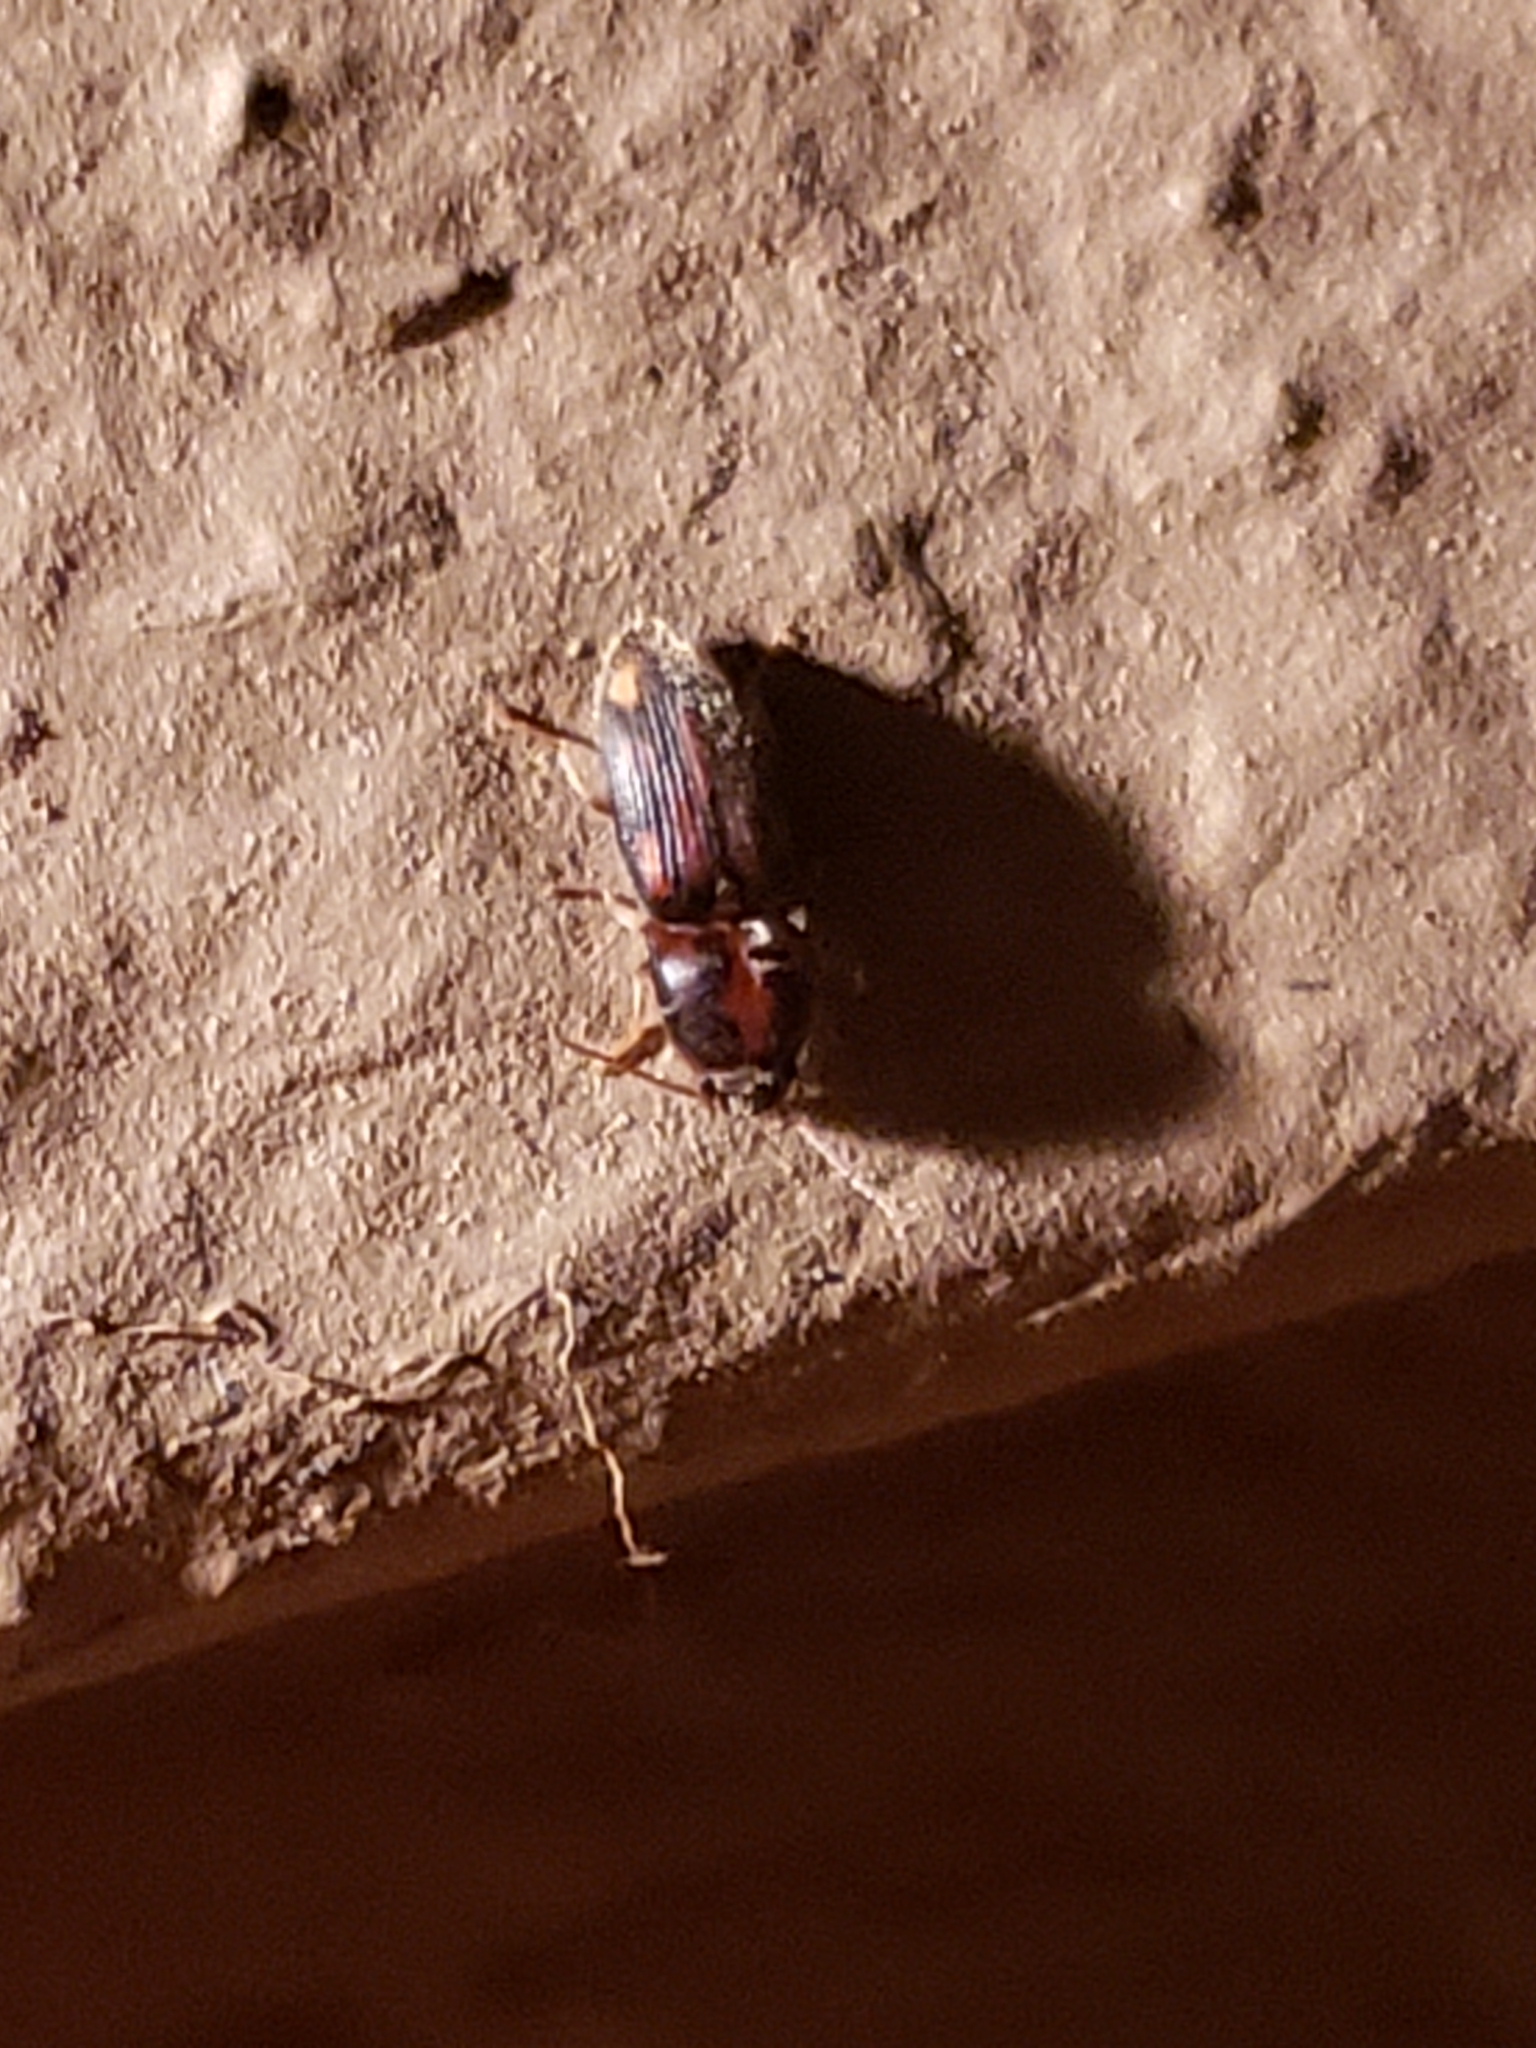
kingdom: Animalia
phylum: Arthropoda
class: Insecta
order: Coleoptera
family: Elateridae
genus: Monocrepidius
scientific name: Monocrepidius bellus
